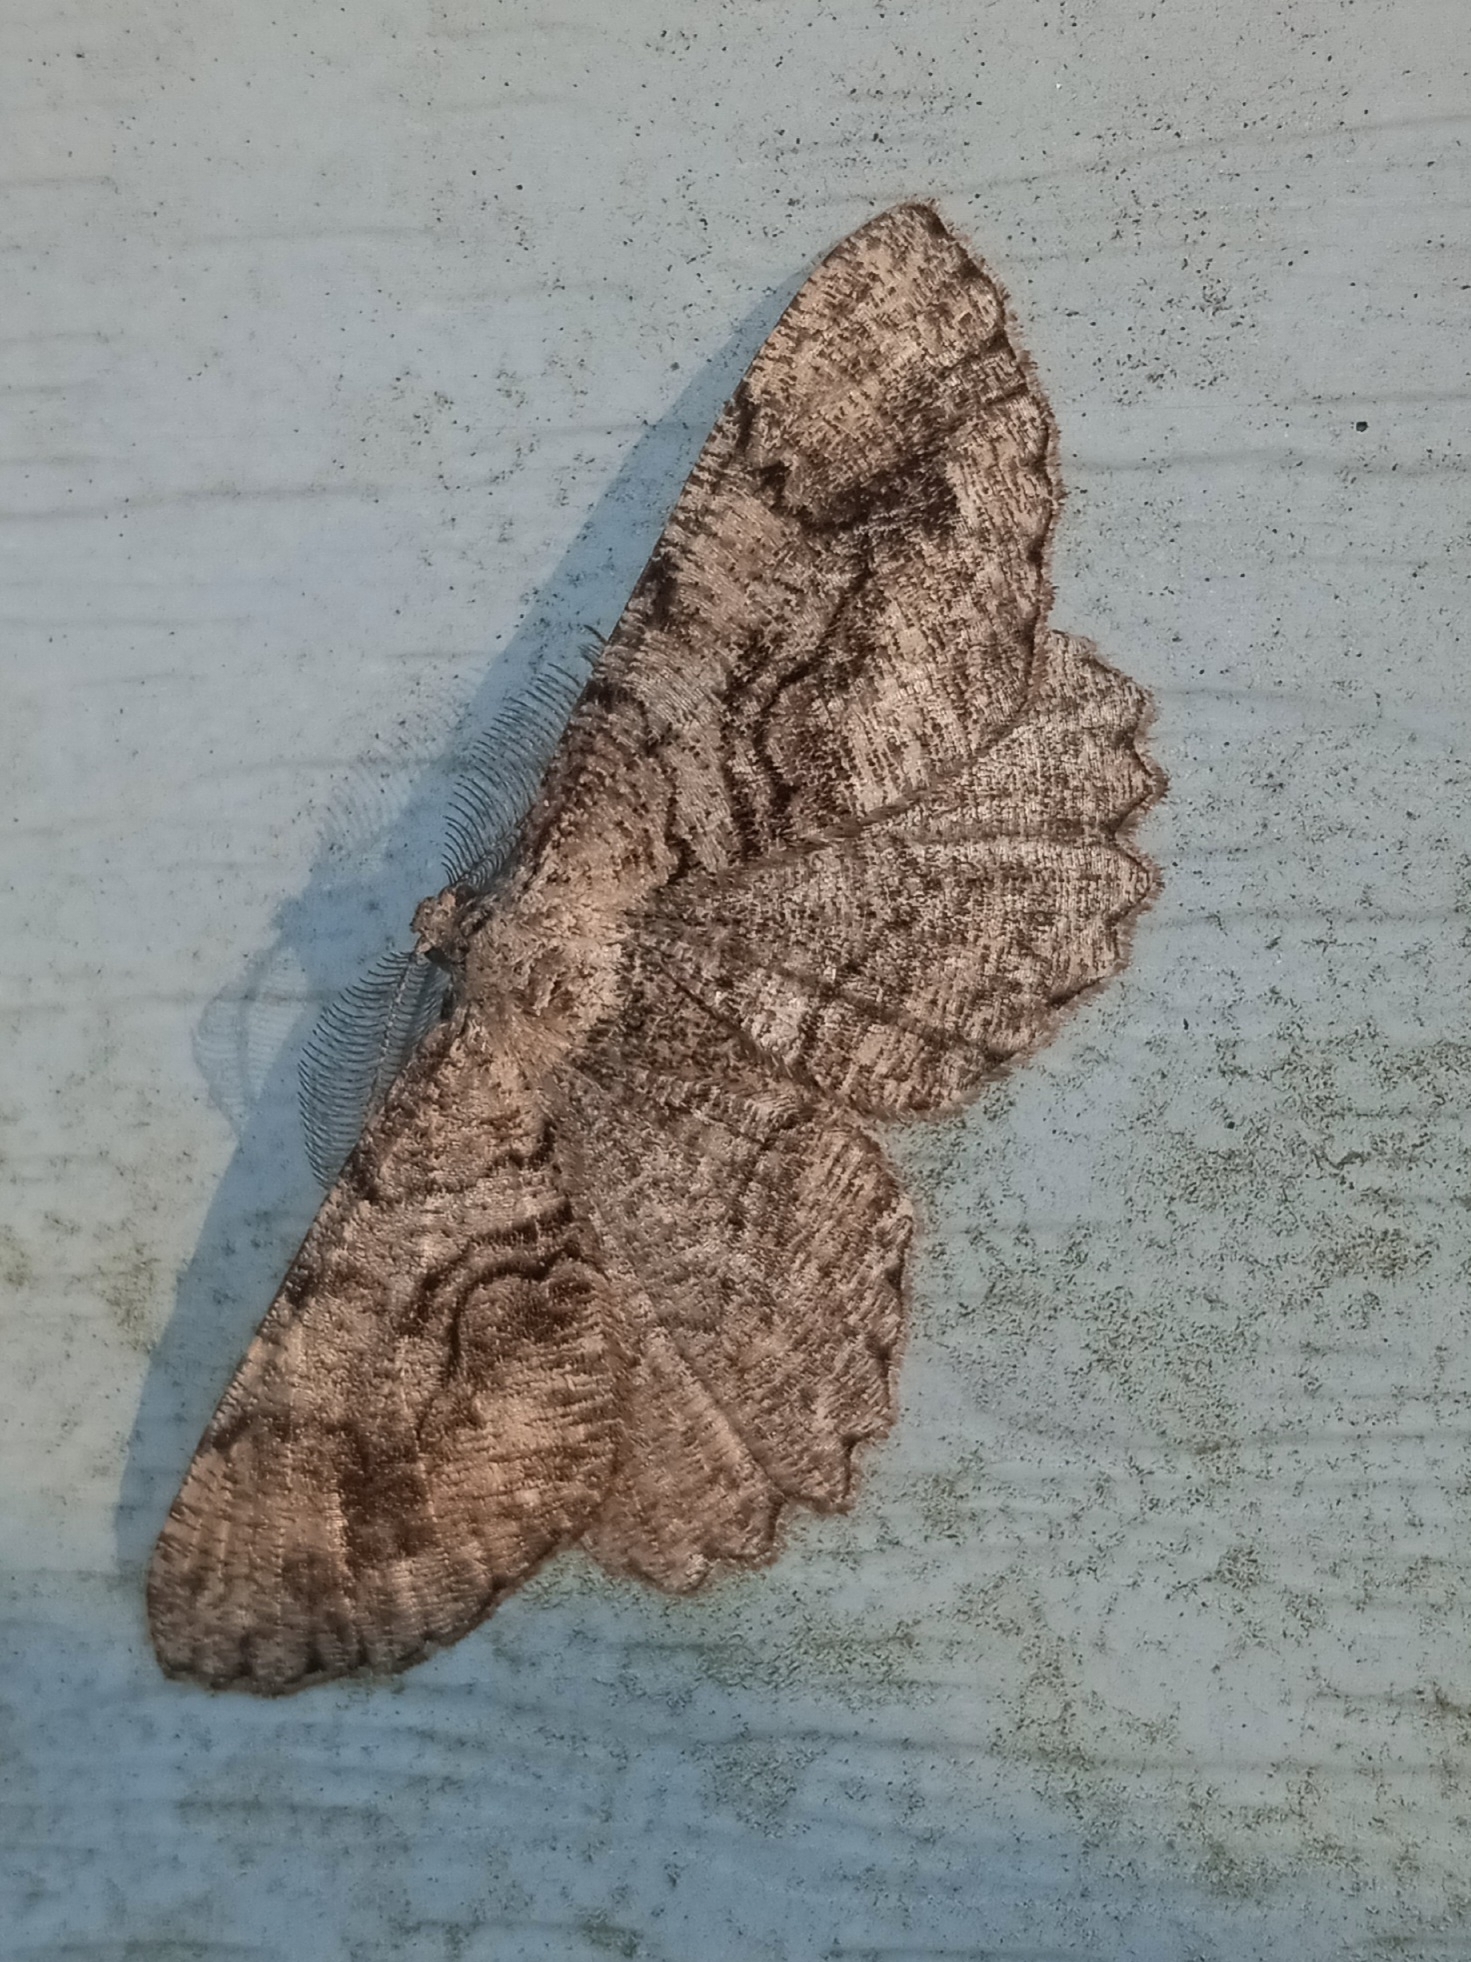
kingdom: Animalia
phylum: Arthropoda
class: Insecta
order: Lepidoptera
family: Geometridae
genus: Cymatophora
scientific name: Cymatophora approximaria
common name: Giant gray moth
